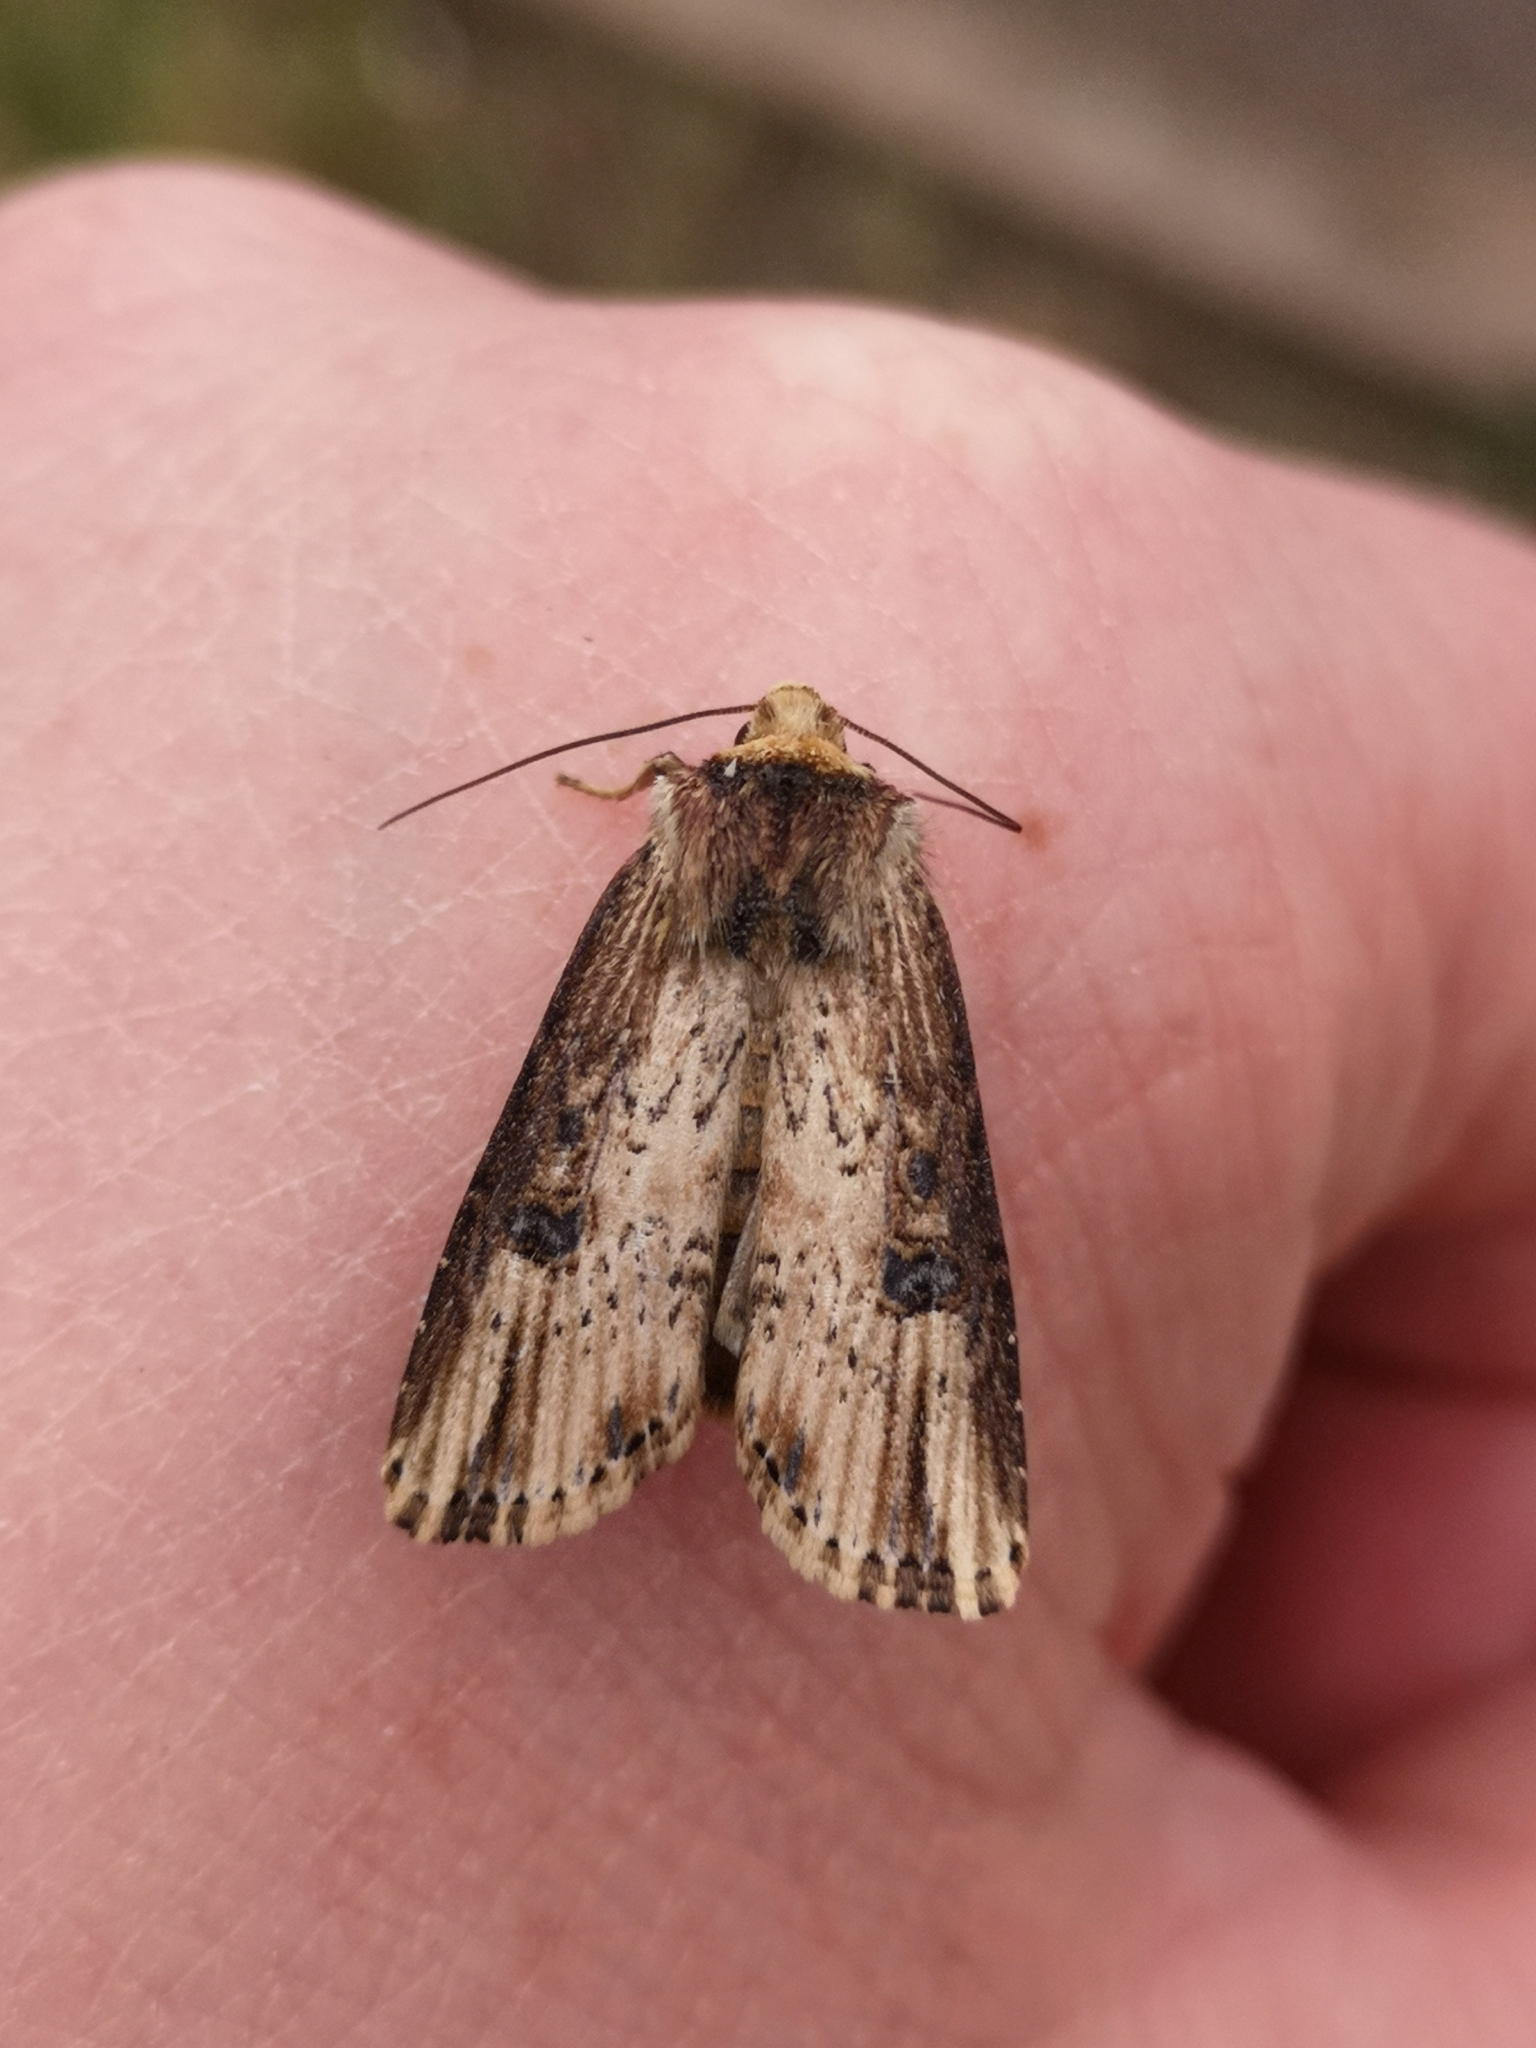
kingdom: Animalia
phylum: Arthropoda
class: Insecta
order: Lepidoptera
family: Noctuidae
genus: Axylia
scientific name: Axylia putris
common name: Flame
